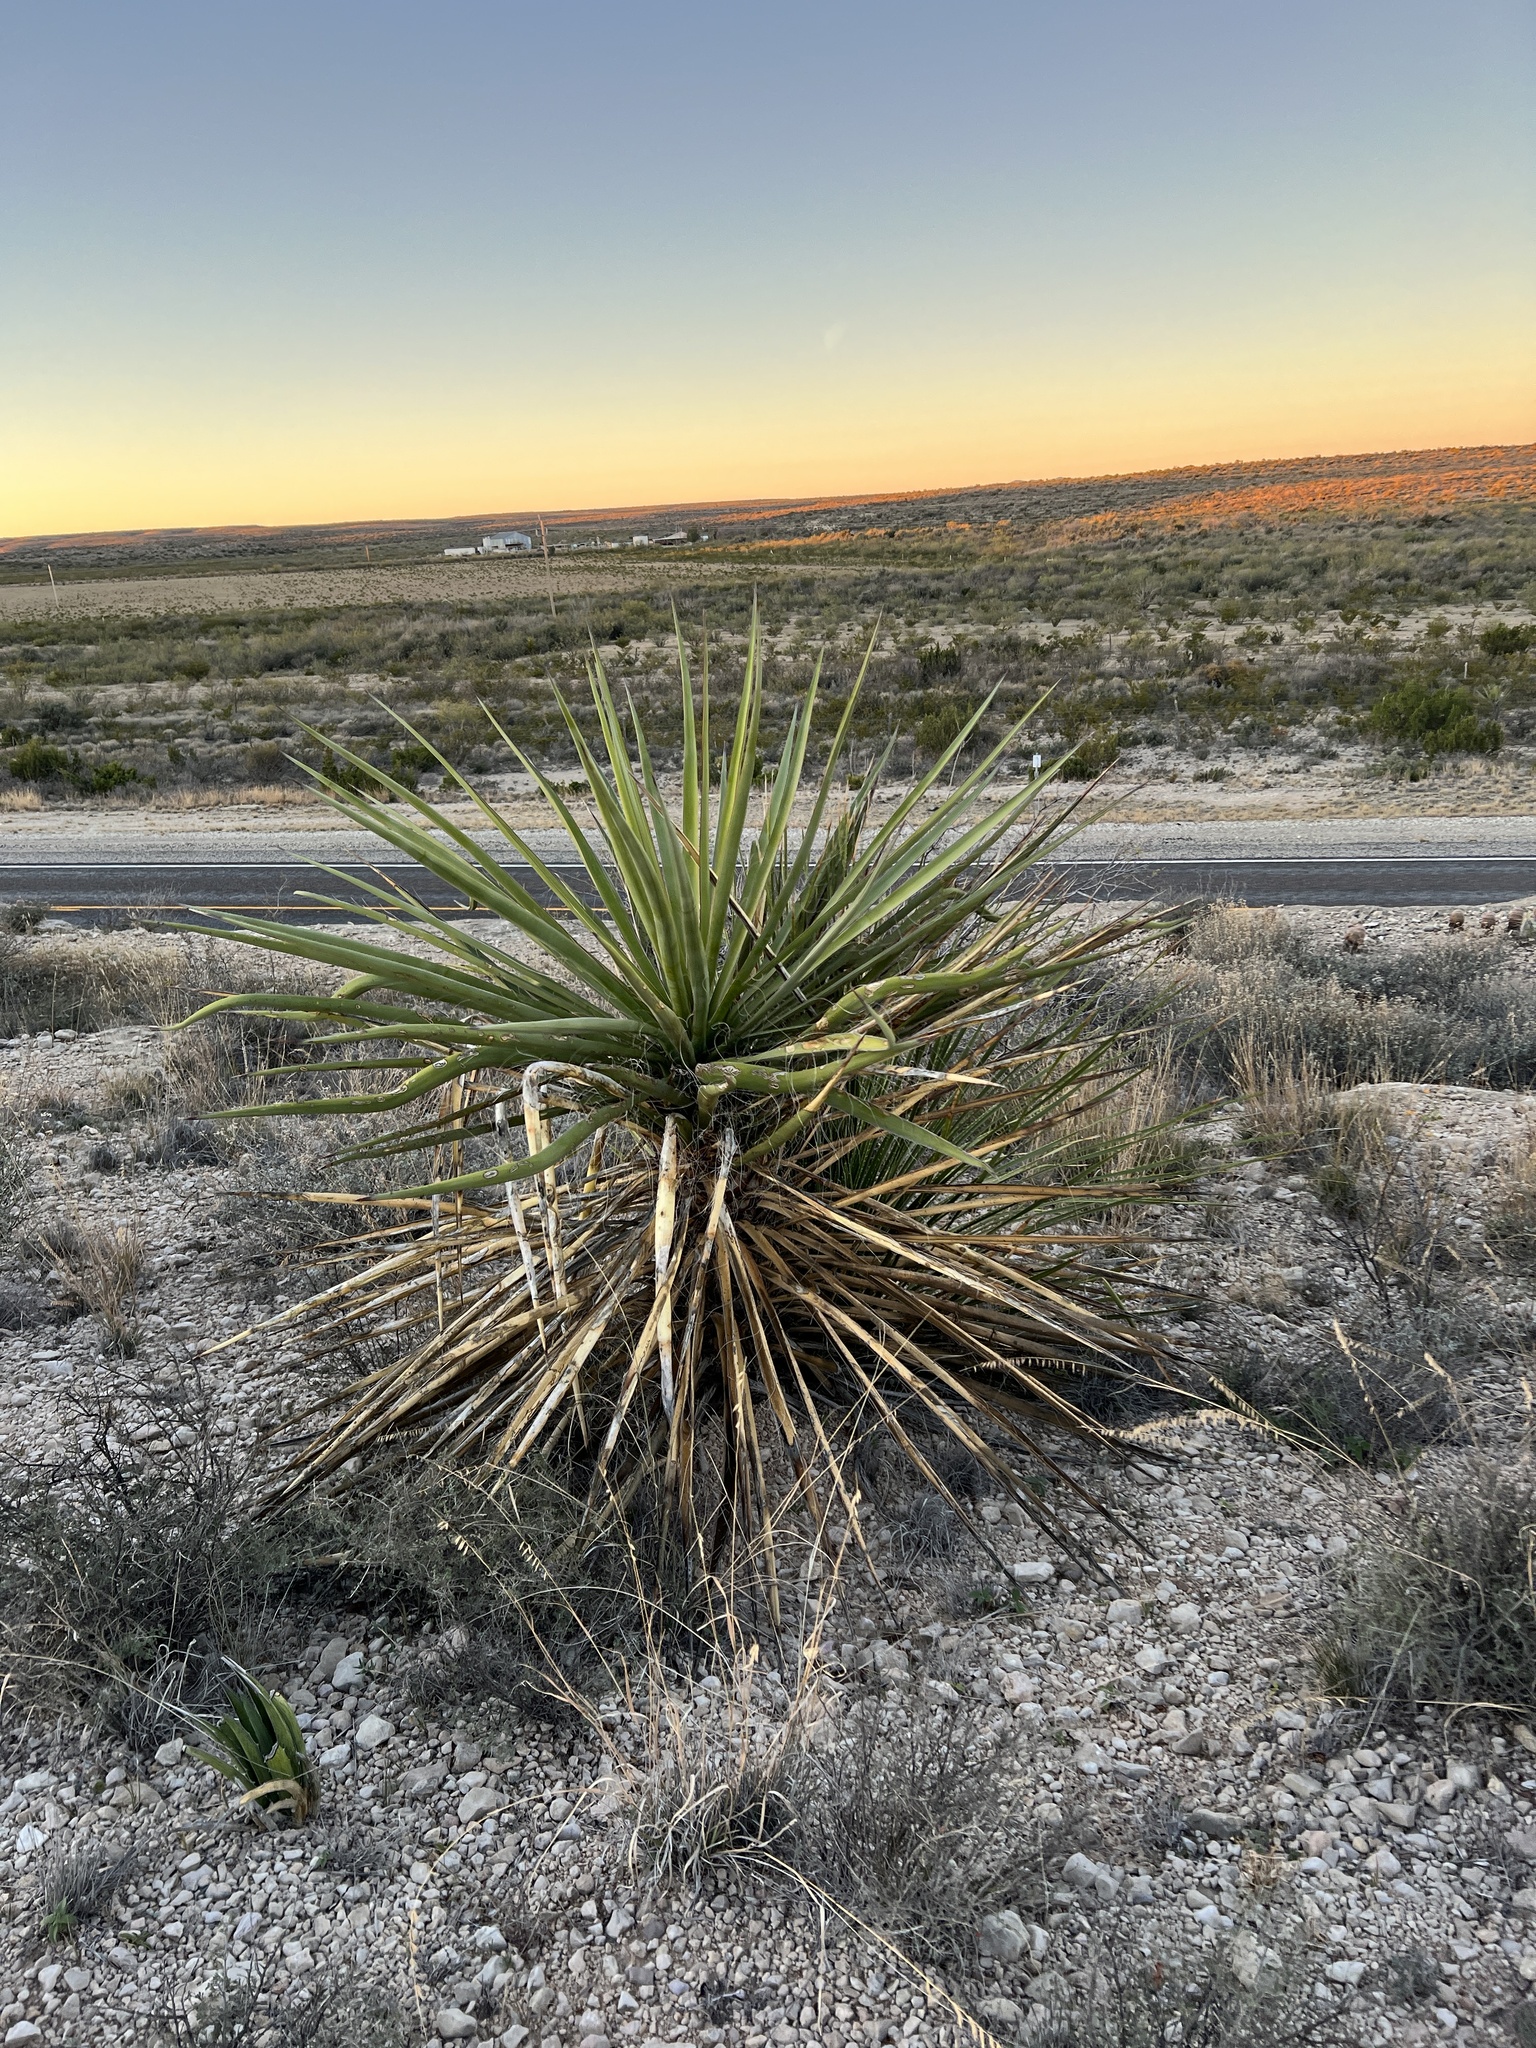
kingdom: Plantae
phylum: Tracheophyta
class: Liliopsida
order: Asparagales
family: Asparagaceae
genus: Yucca
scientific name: Yucca treculiana
